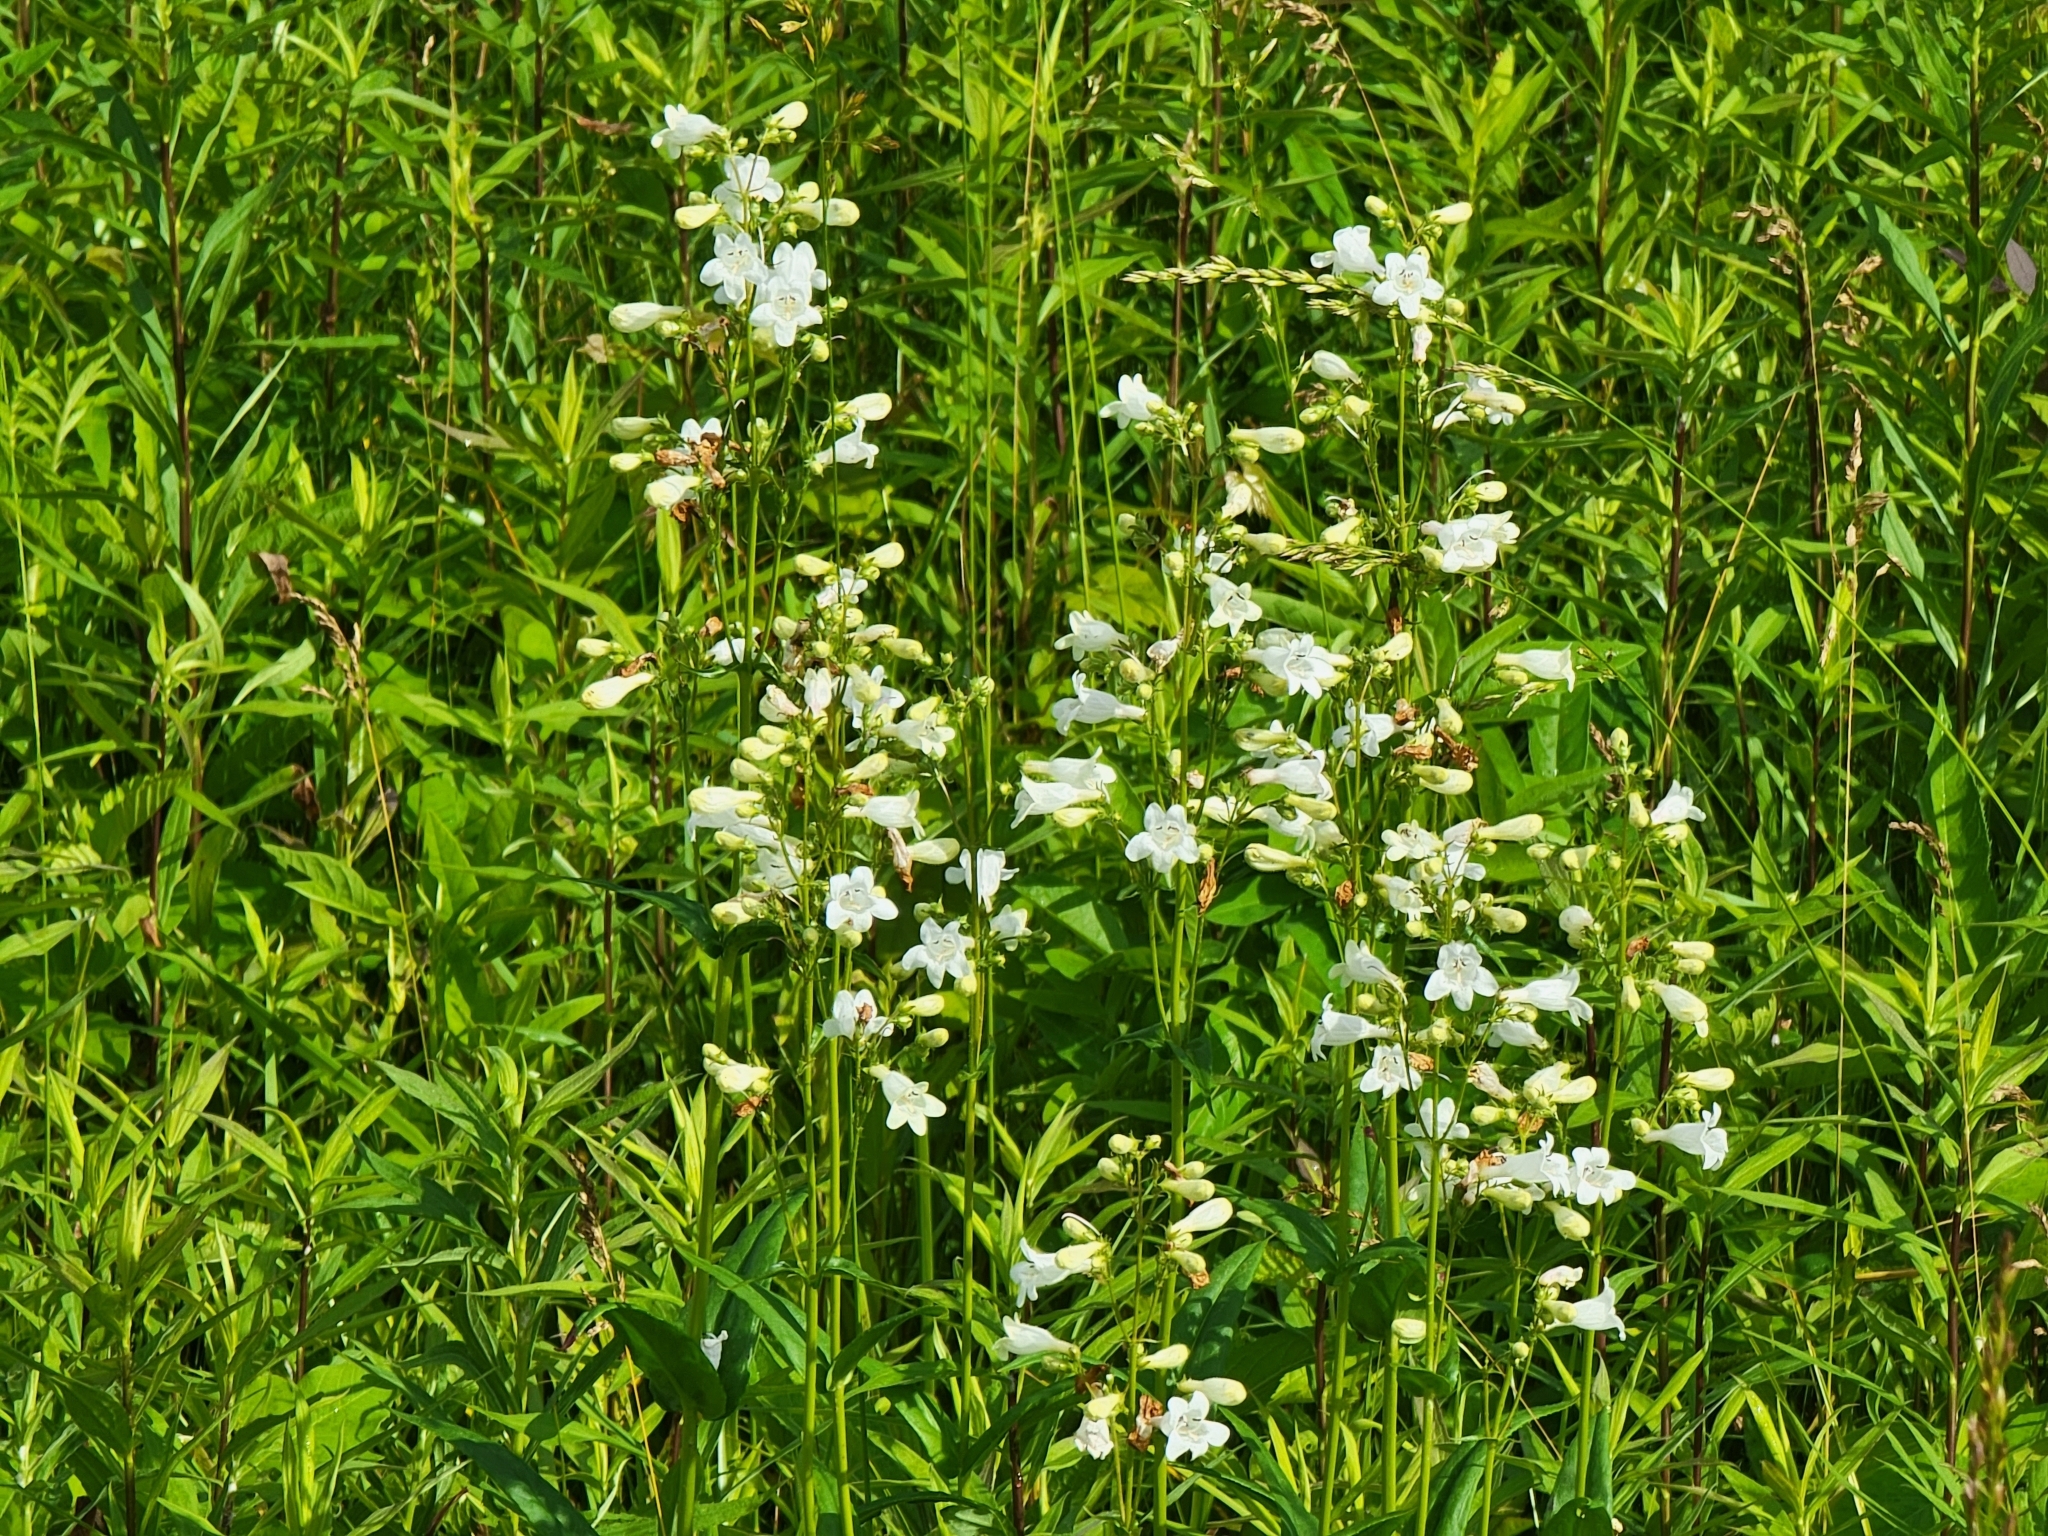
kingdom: Plantae
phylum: Tracheophyta
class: Magnoliopsida
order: Lamiales
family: Plantaginaceae
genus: Penstemon
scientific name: Penstemon digitalis
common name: Foxglove beardtongue
